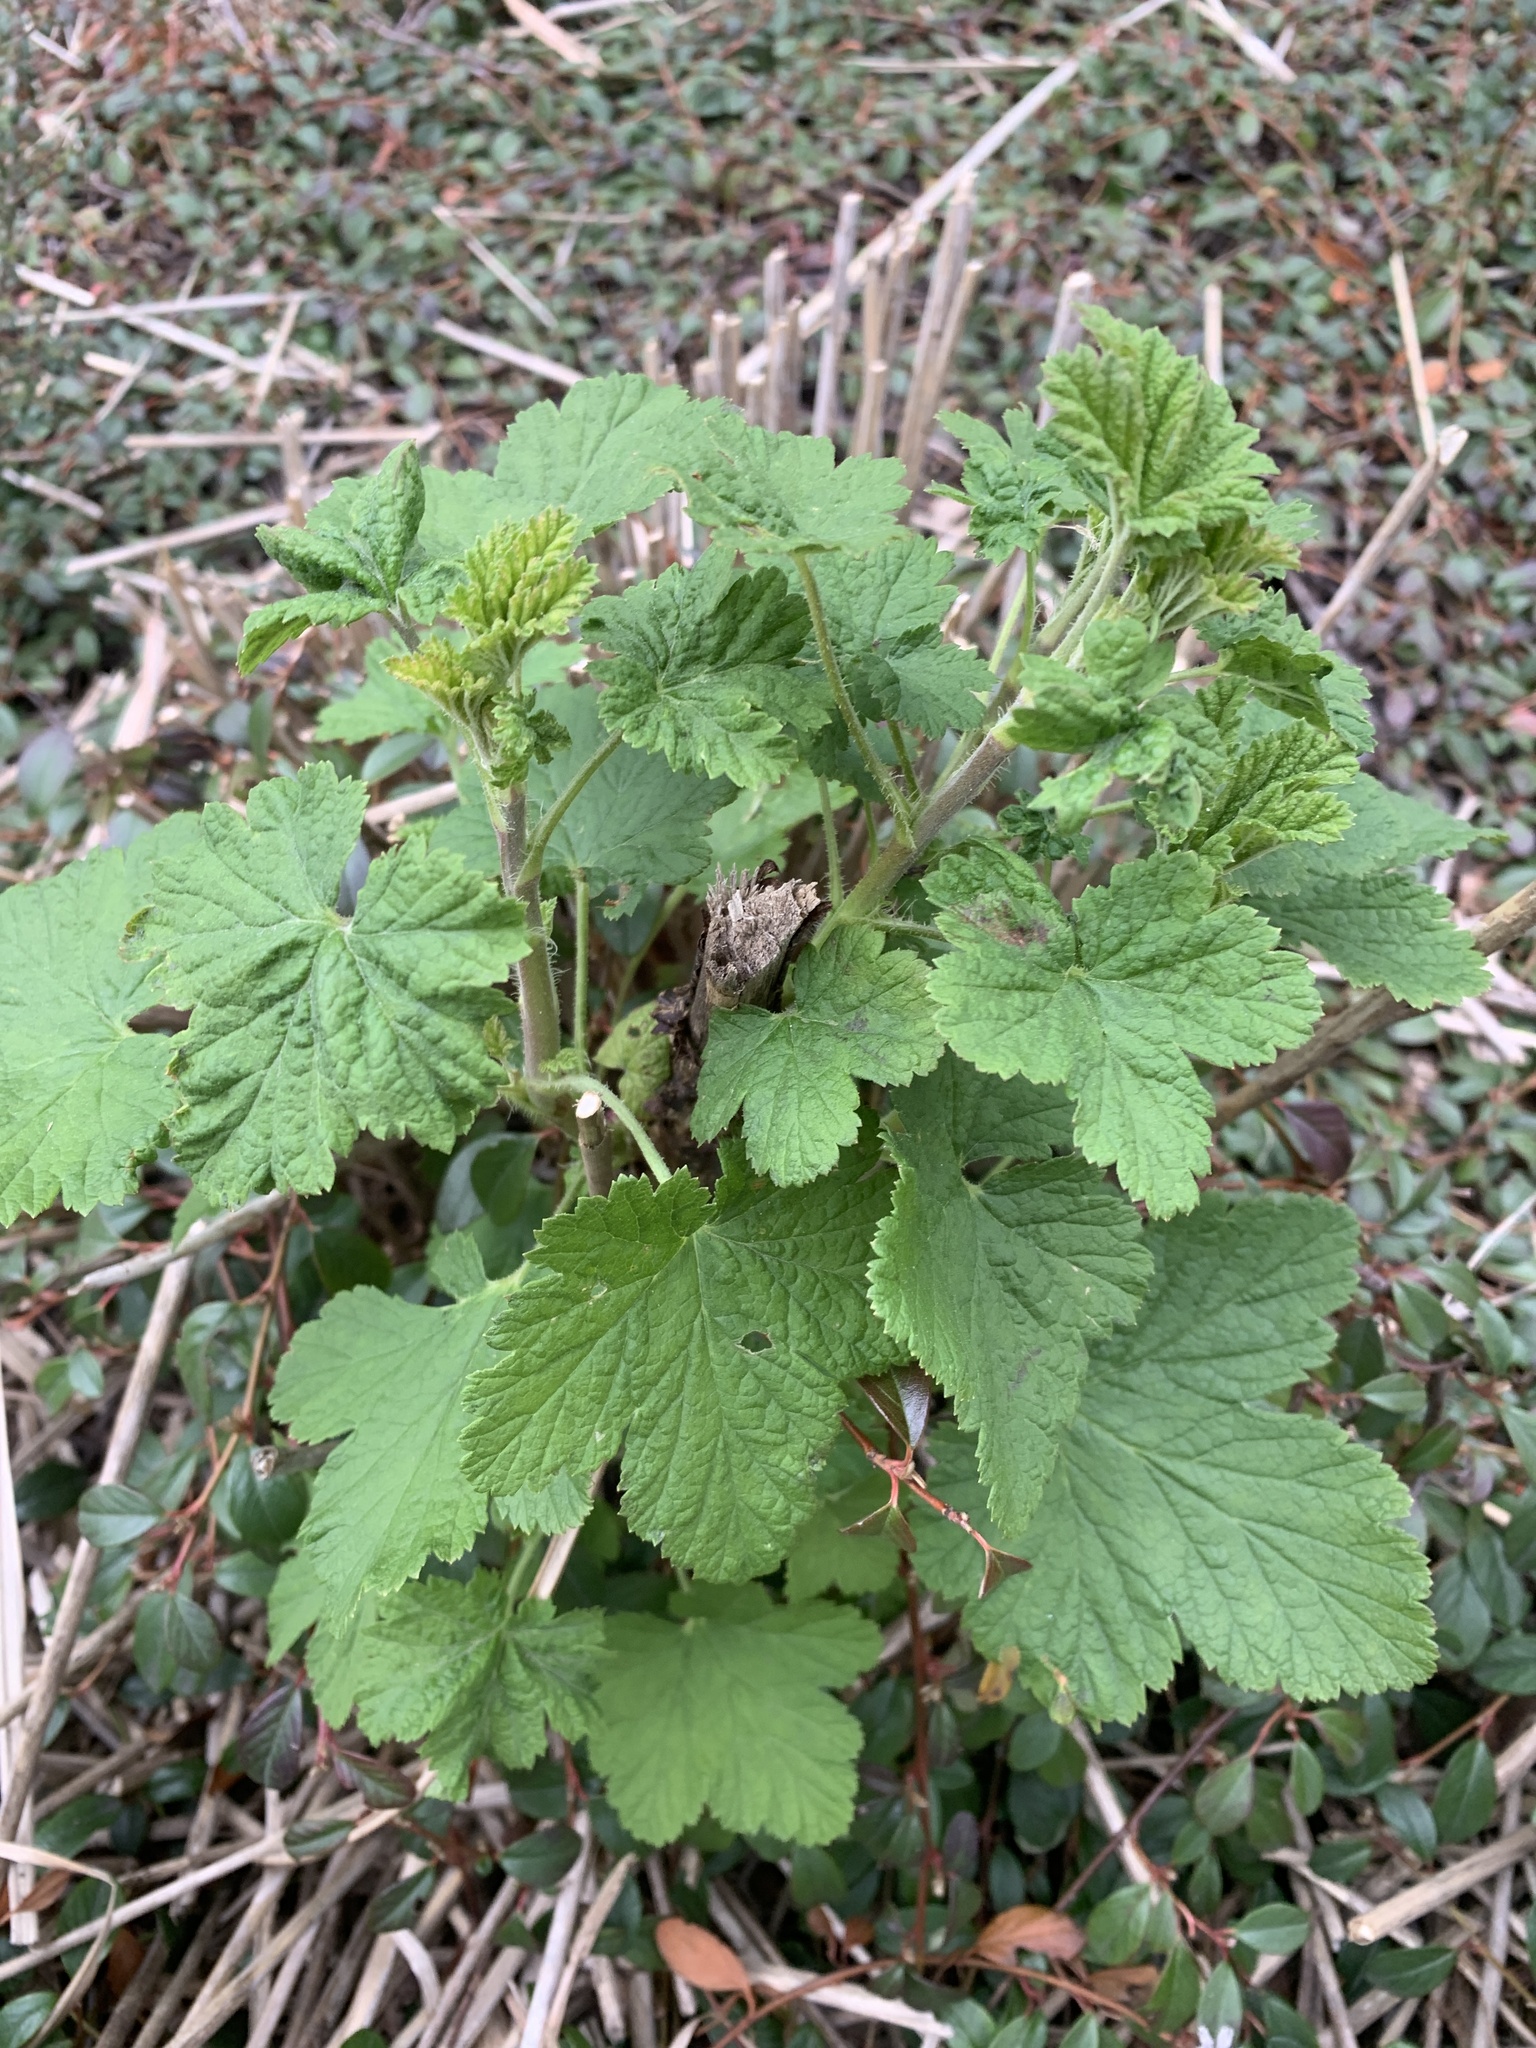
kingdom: Plantae
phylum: Tracheophyta
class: Magnoliopsida
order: Saxifragales
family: Grossulariaceae
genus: Ribes
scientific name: Ribes sanguineum
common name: Flowering currant
